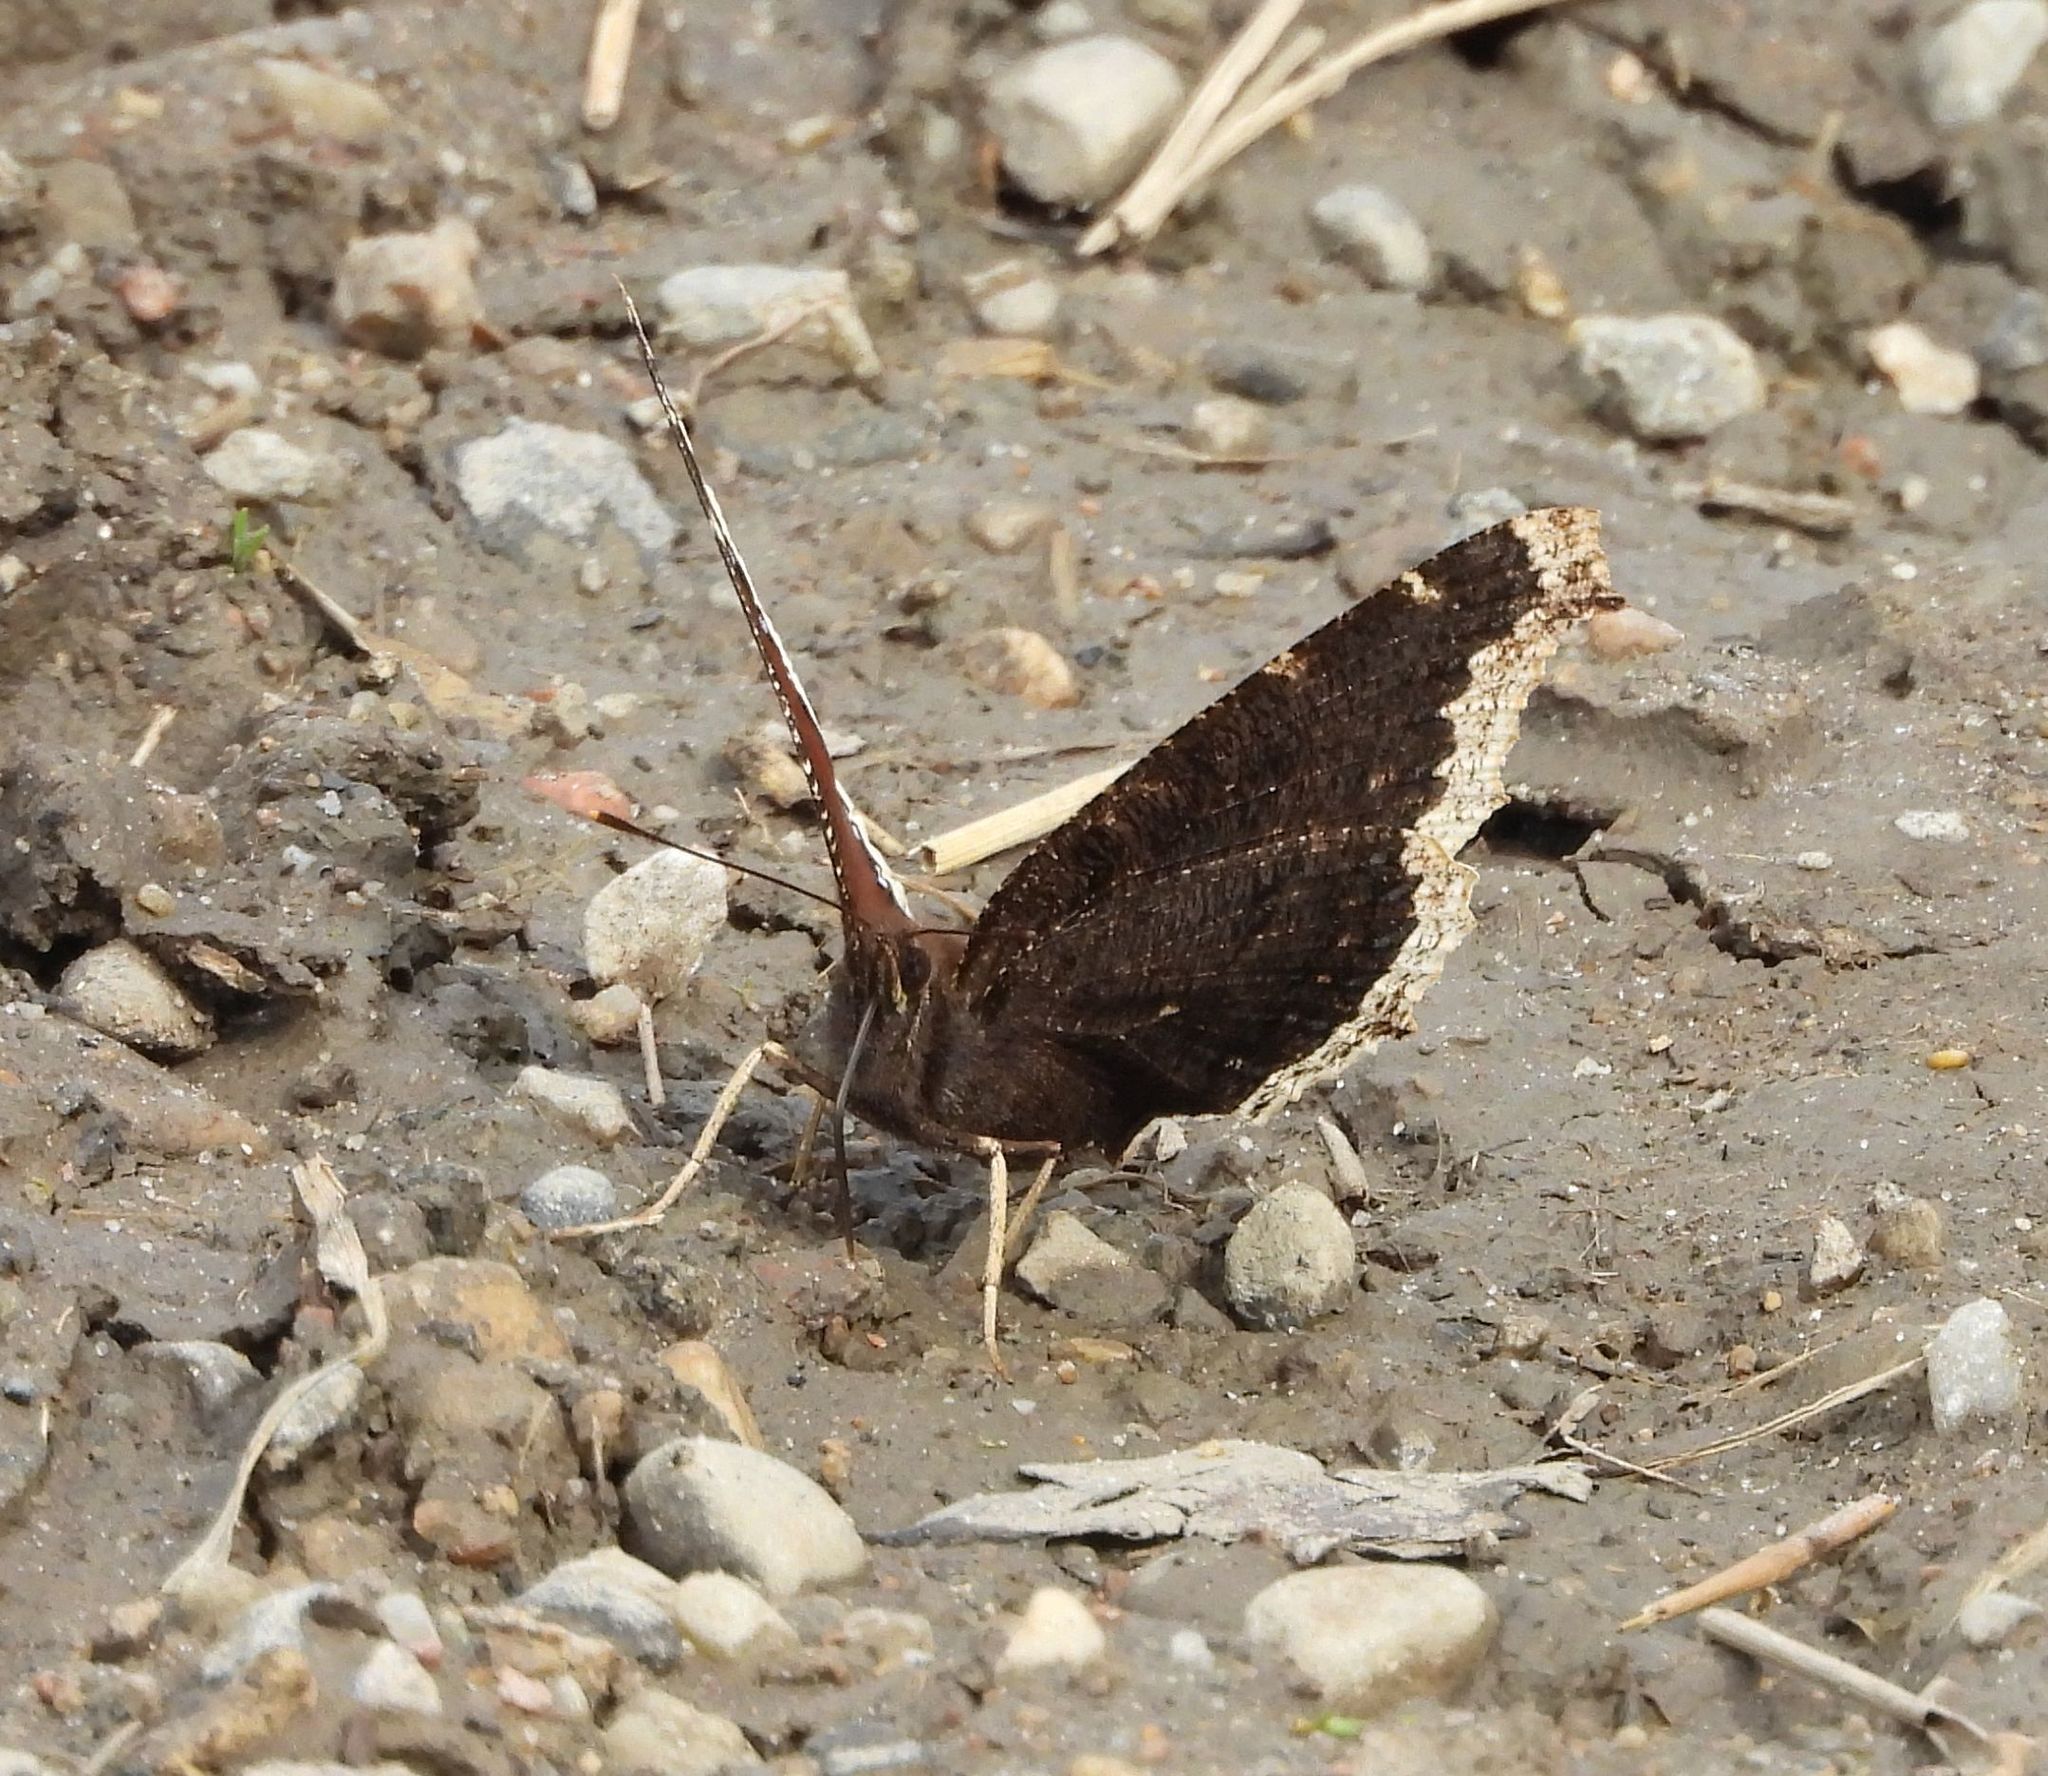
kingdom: Animalia
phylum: Arthropoda
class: Insecta
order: Lepidoptera
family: Nymphalidae
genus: Nymphalis
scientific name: Nymphalis antiopa
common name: Camberwell beauty
